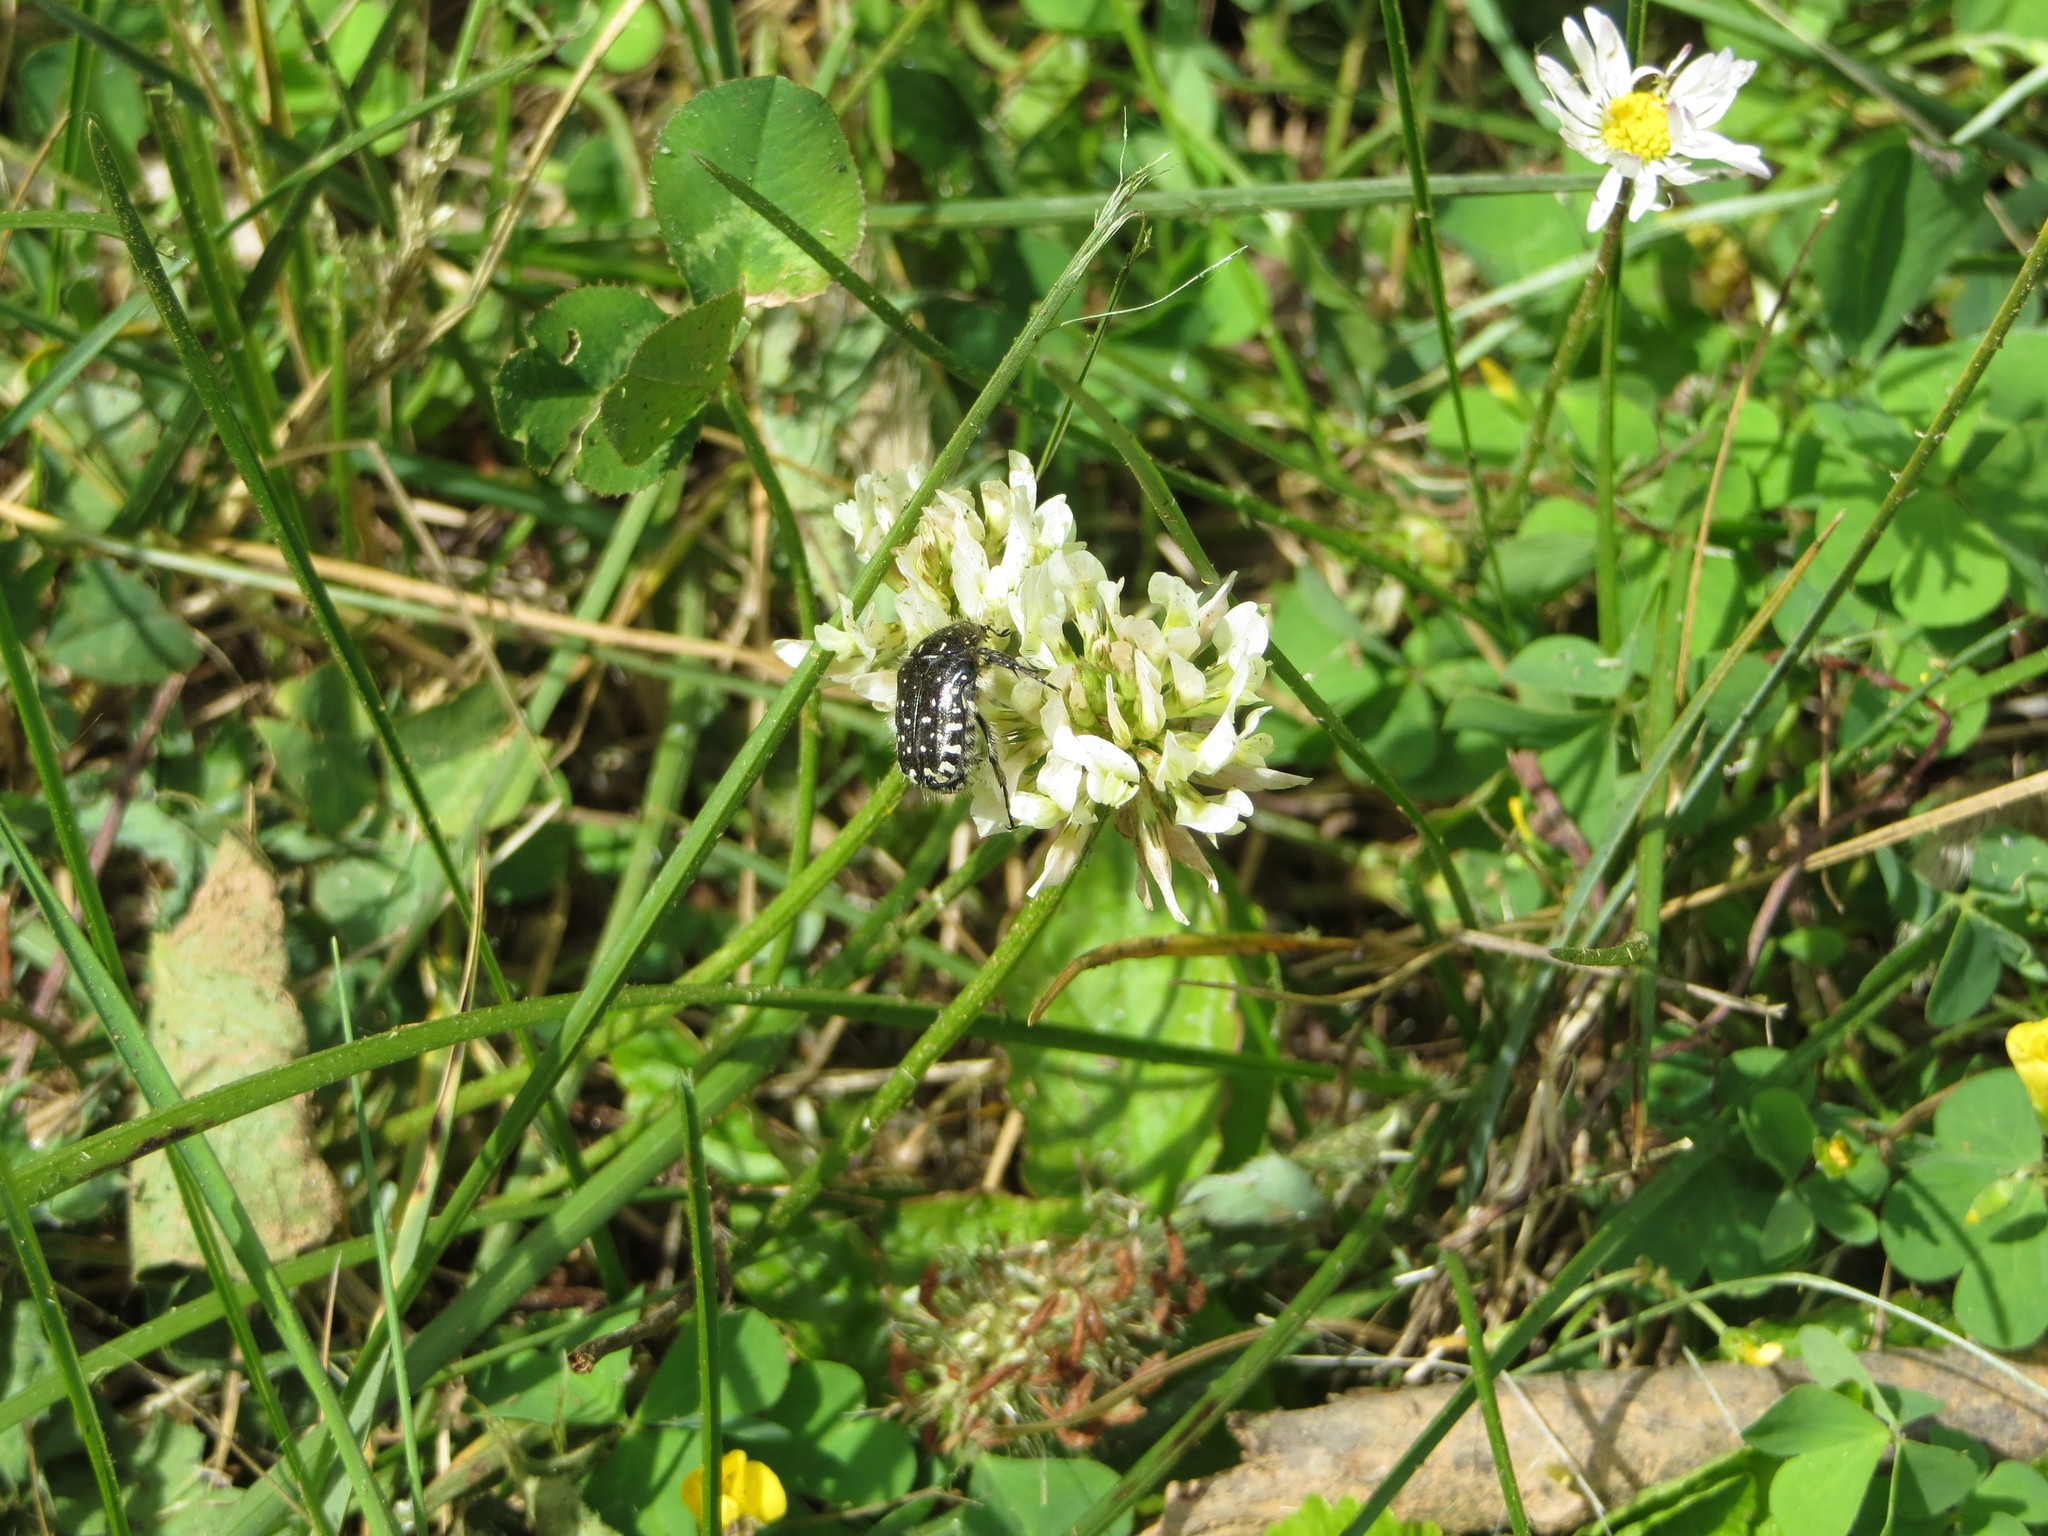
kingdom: Animalia
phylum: Arthropoda
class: Insecta
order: Coleoptera
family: Scarabaeidae
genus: Oxythyrea
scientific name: Oxythyrea funesta
